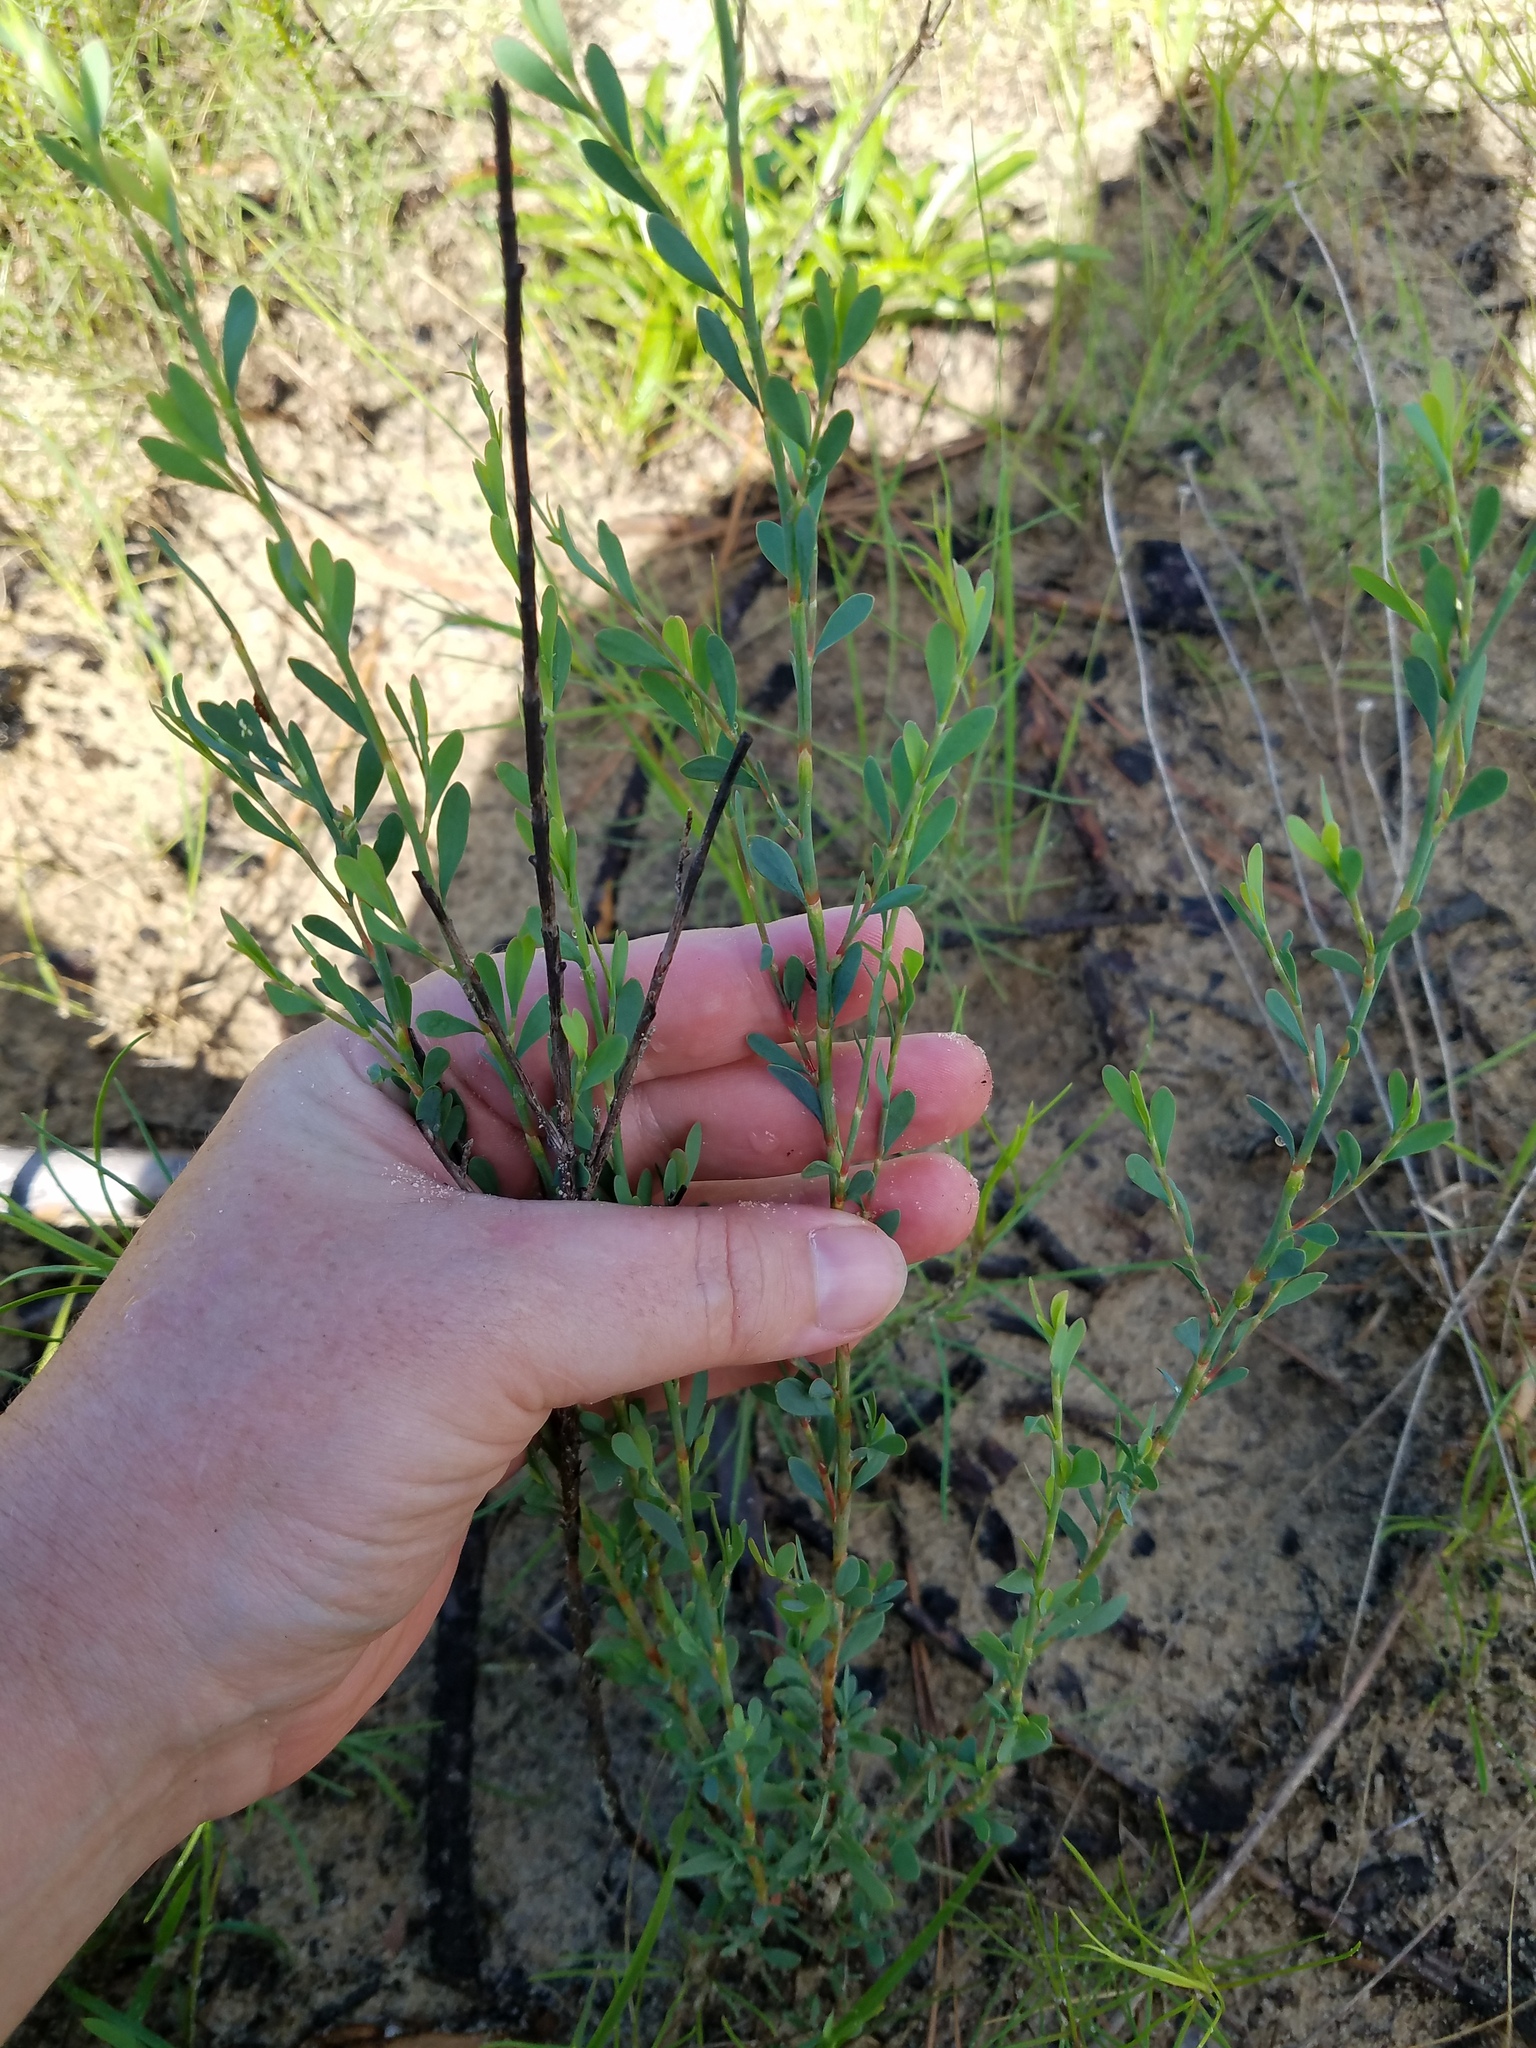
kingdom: Plantae
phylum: Tracheophyta
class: Magnoliopsida
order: Caryophyllales
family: Polygonaceae
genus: Polygonella
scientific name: Polygonella polygama
